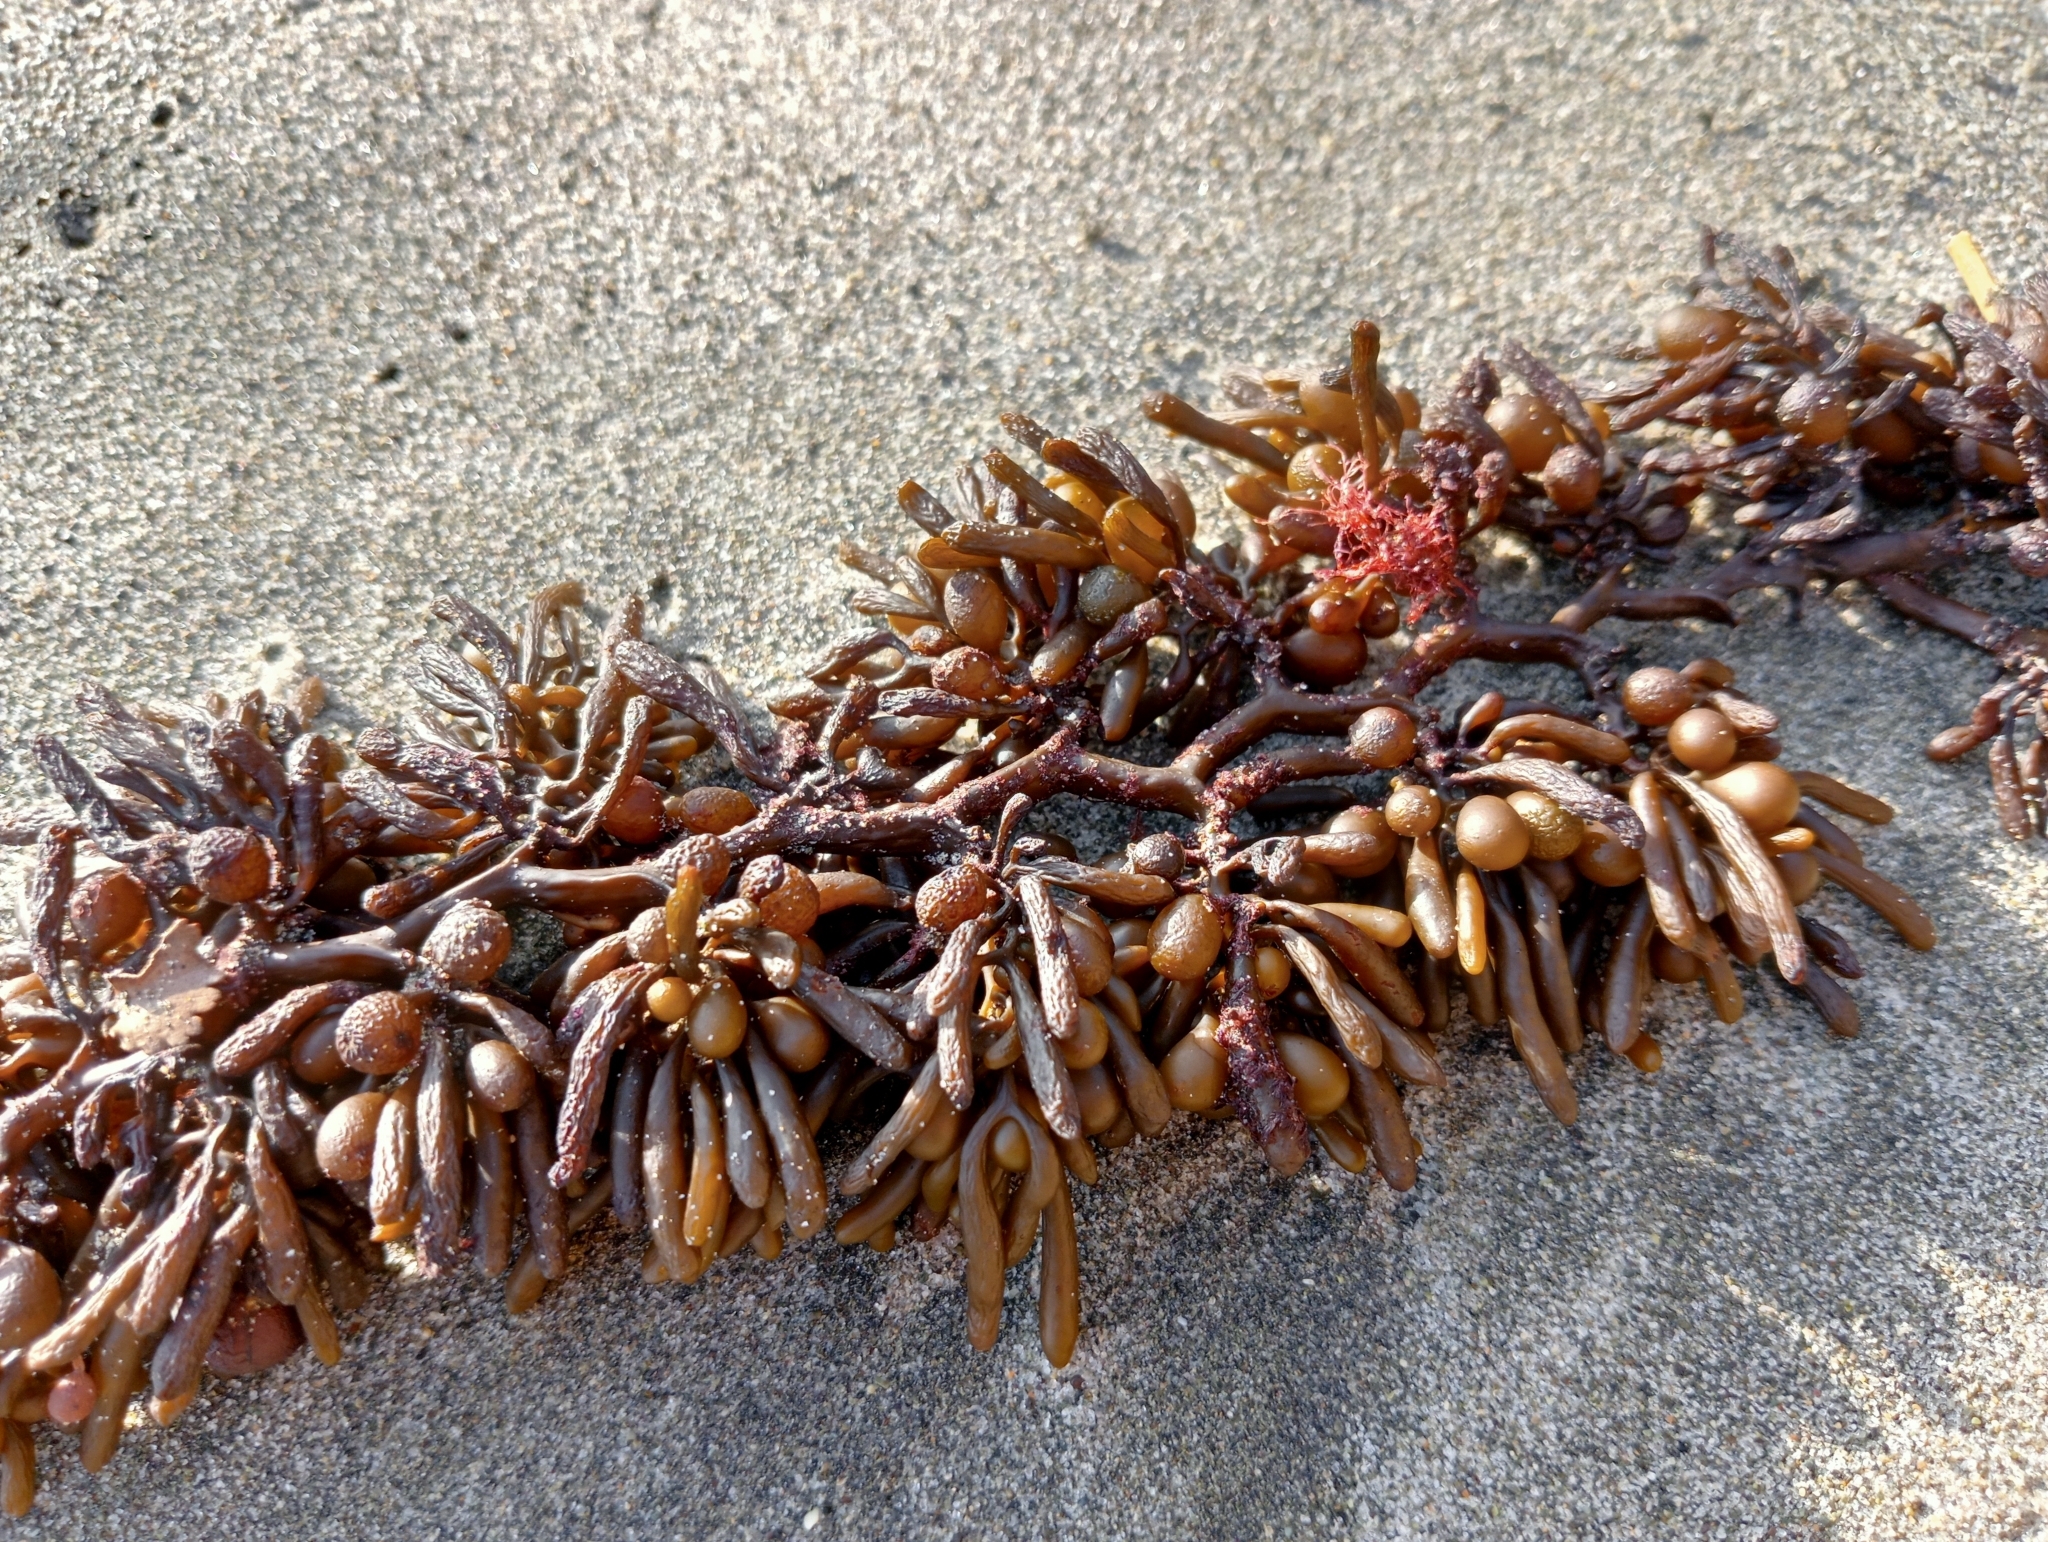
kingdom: Chromista
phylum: Ochrophyta
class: Phaeophyceae
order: Fucales
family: Sargassaceae
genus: Cystophora
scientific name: Cystophora torulosa
